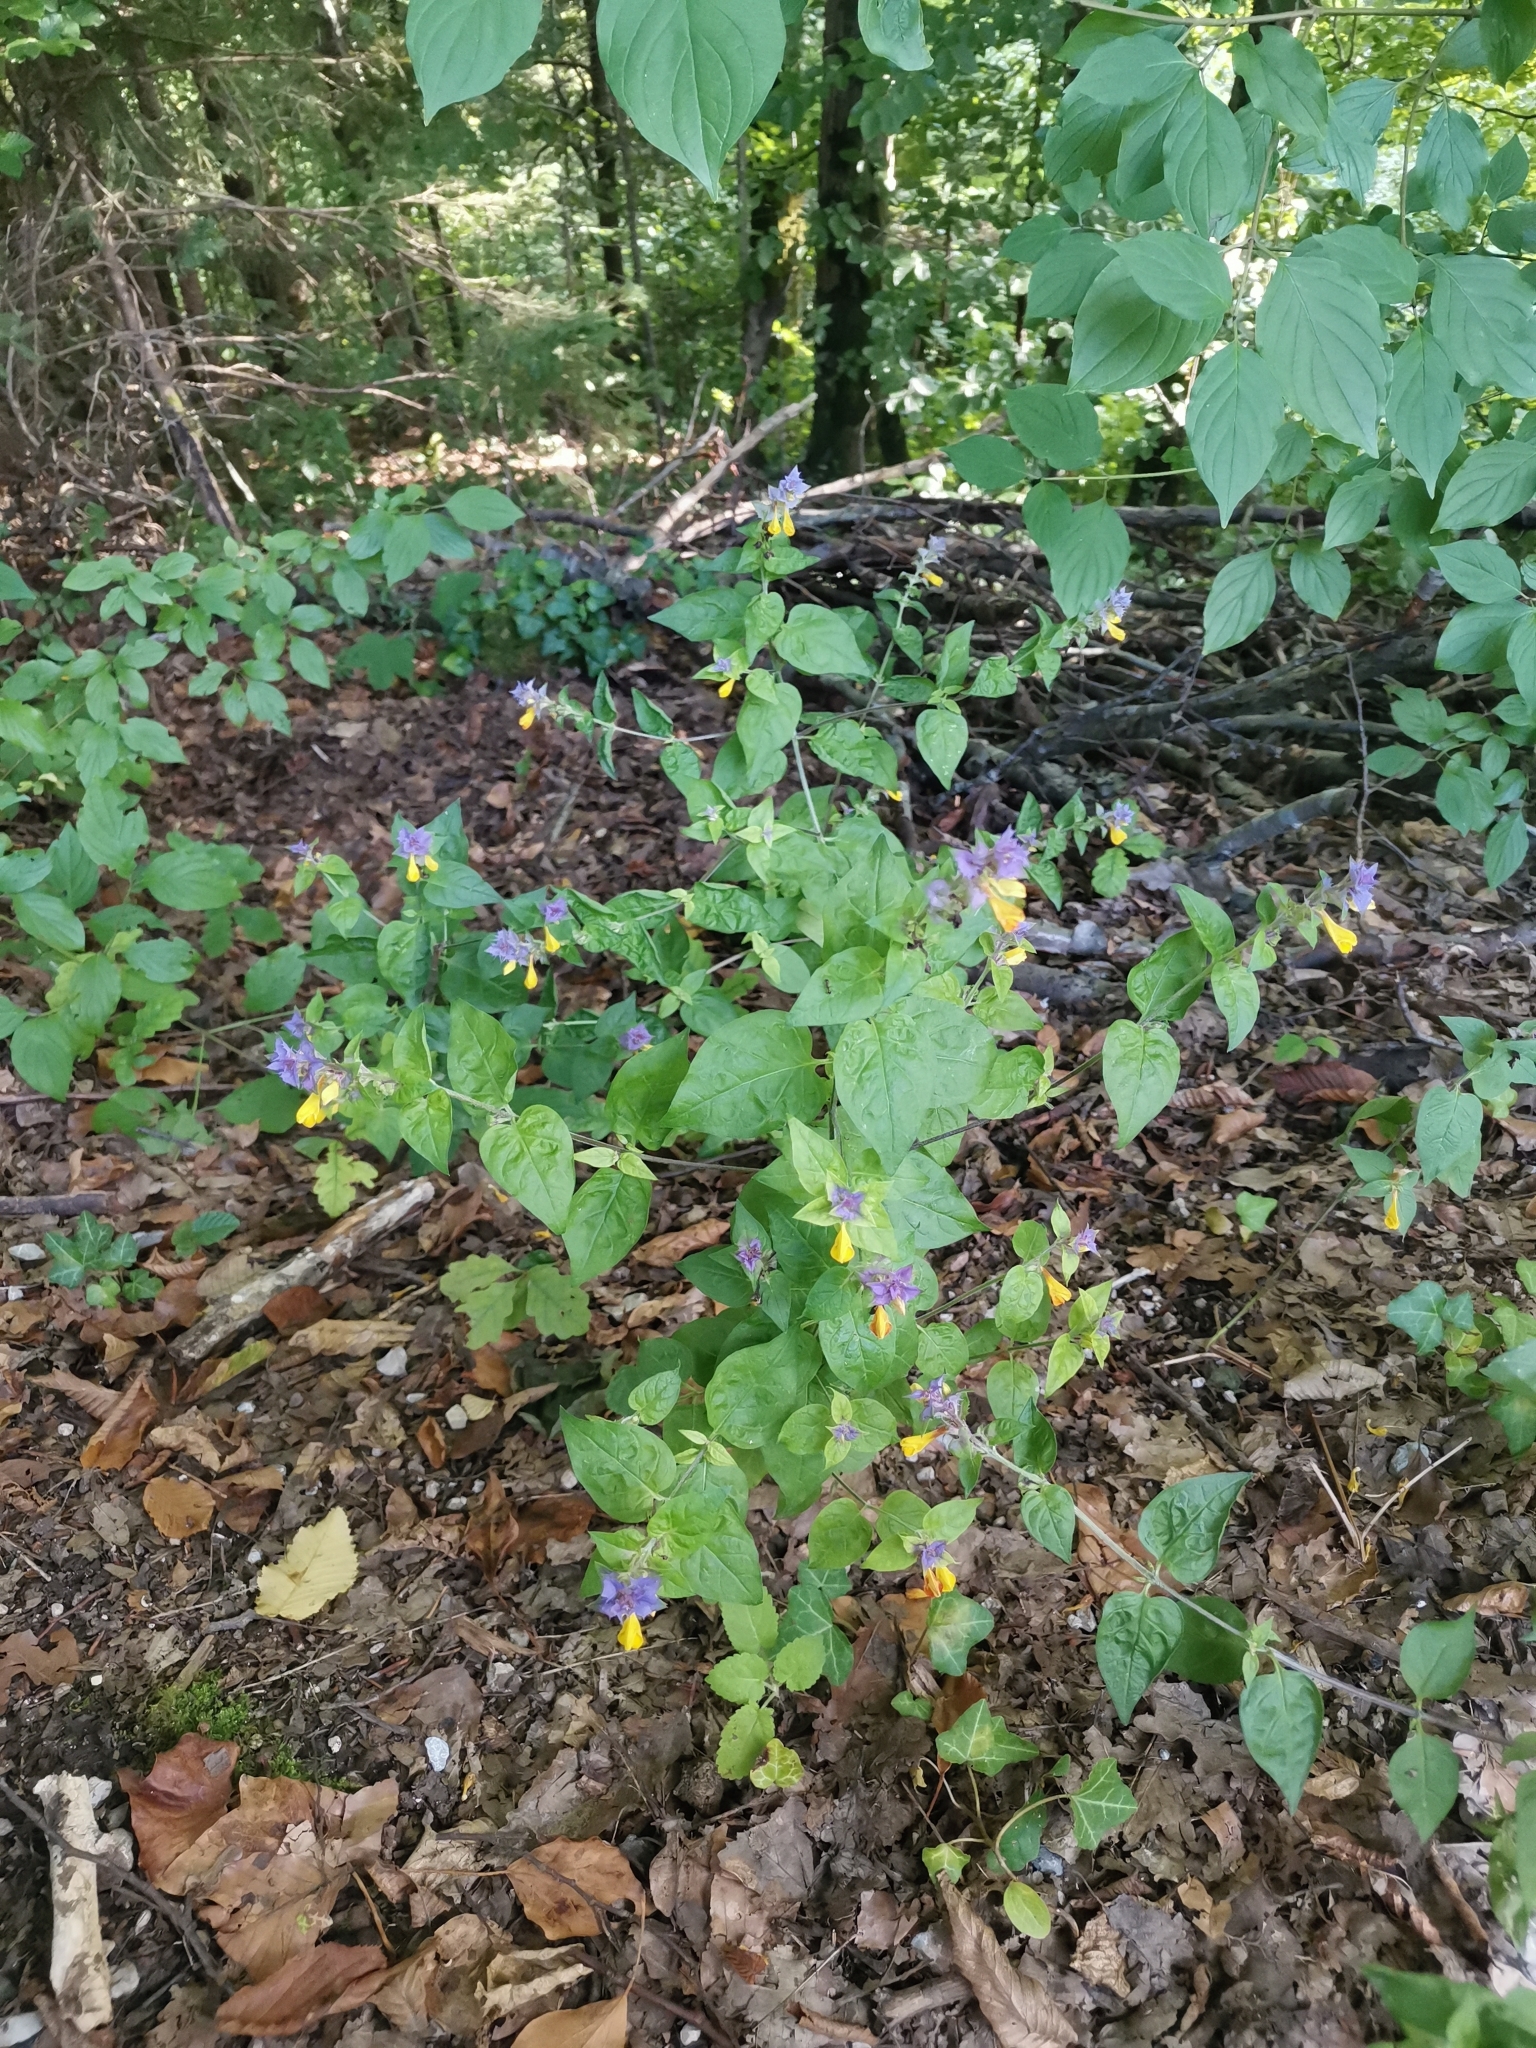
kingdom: Plantae
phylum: Tracheophyta
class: Magnoliopsida
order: Lamiales
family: Orobanchaceae
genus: Melampyrum
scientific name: Melampyrum nemorosum
